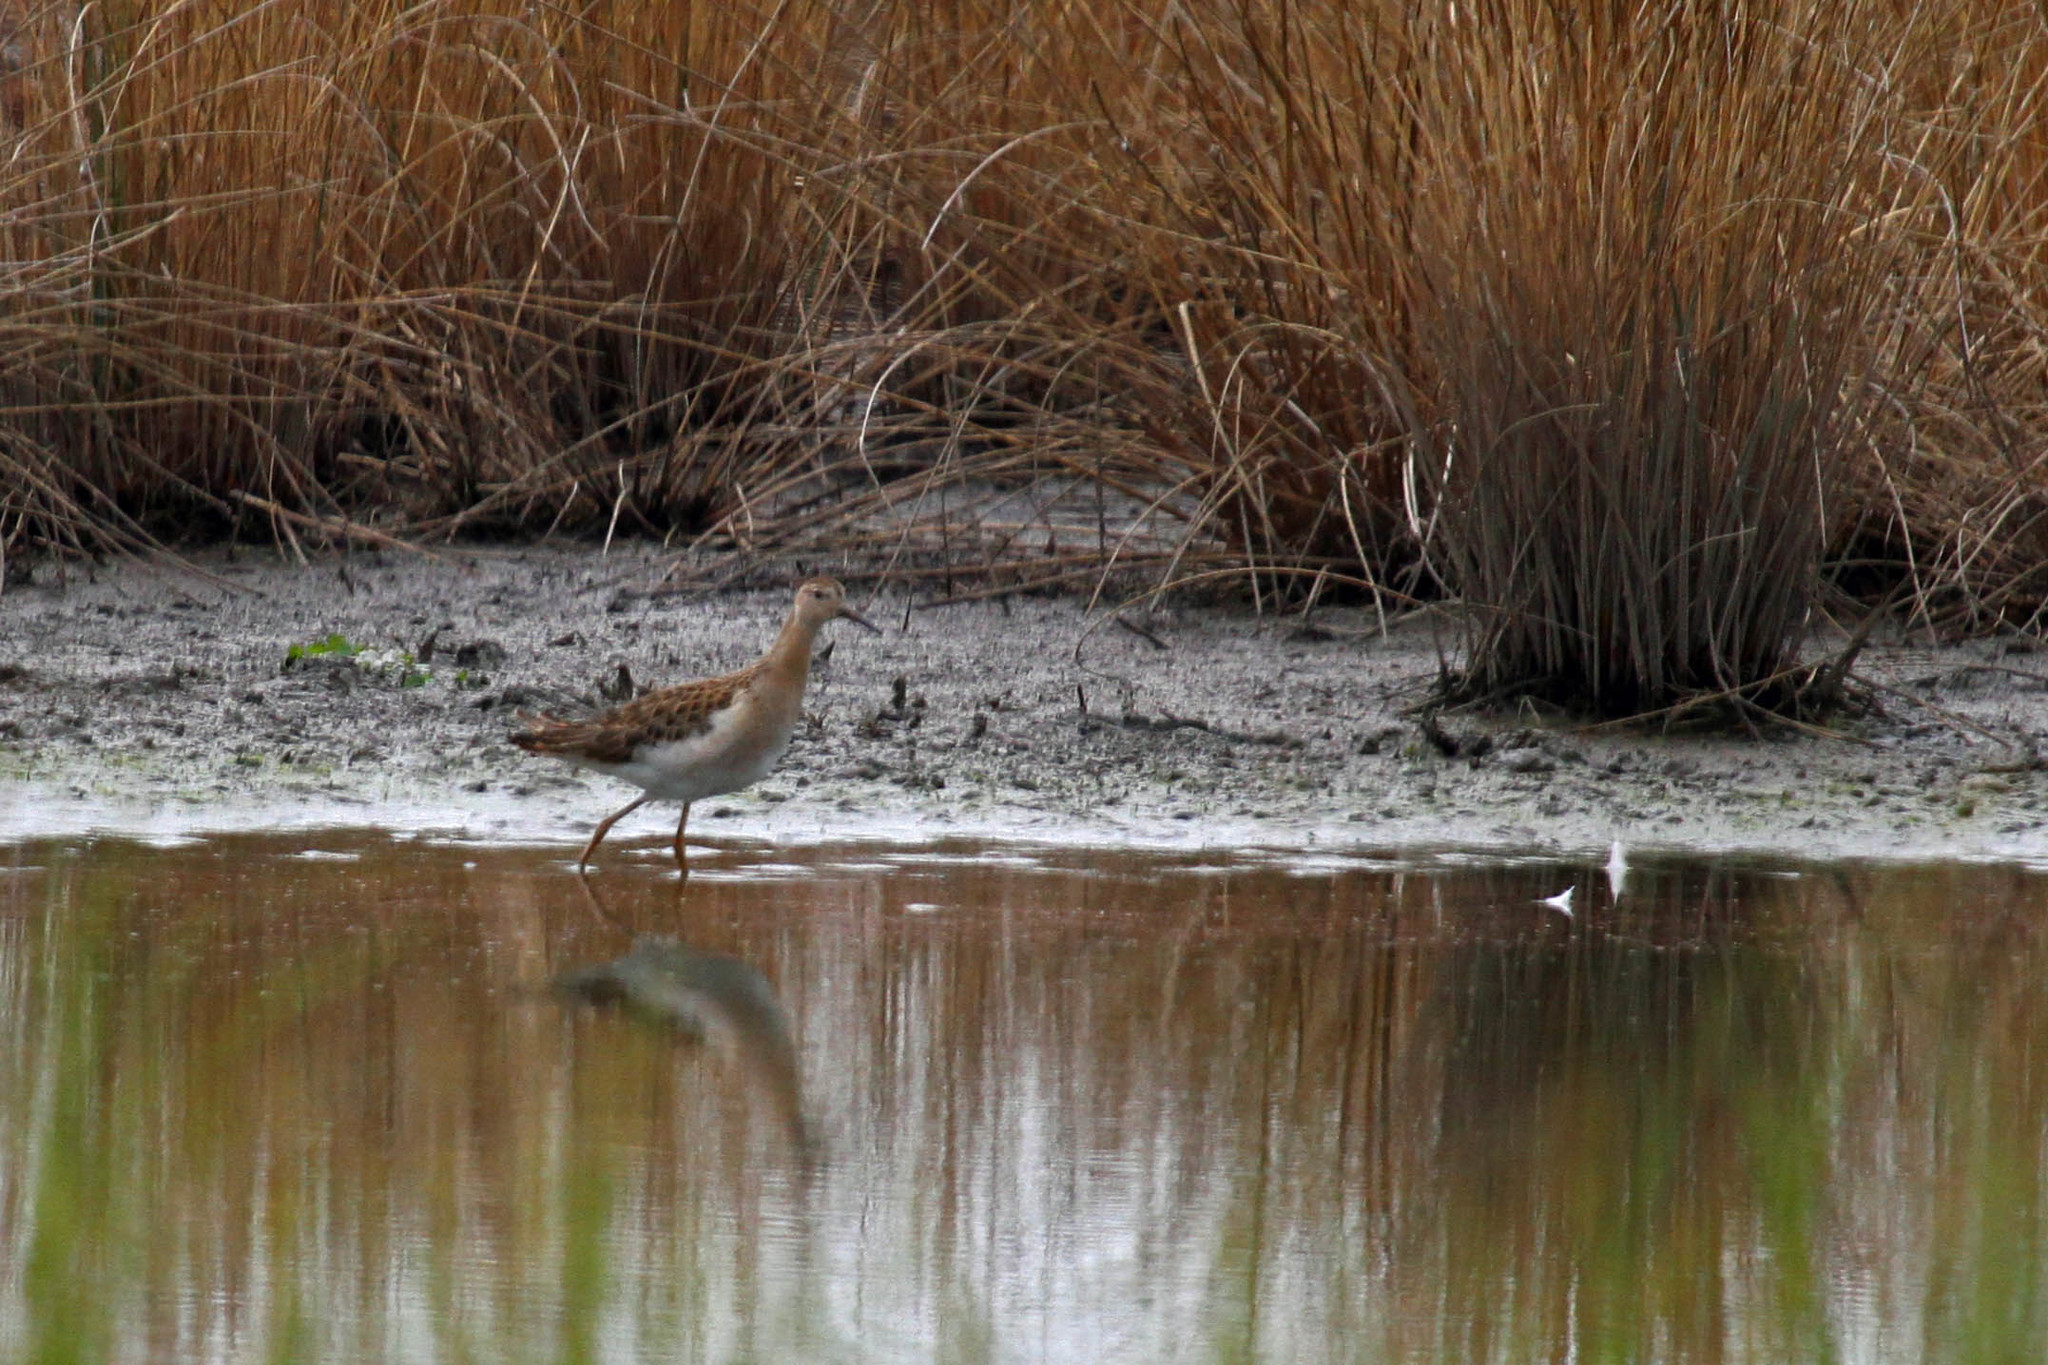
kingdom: Animalia
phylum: Chordata
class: Aves
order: Charadriiformes
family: Scolopacidae
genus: Calidris
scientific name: Calidris pugnax
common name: Ruff
